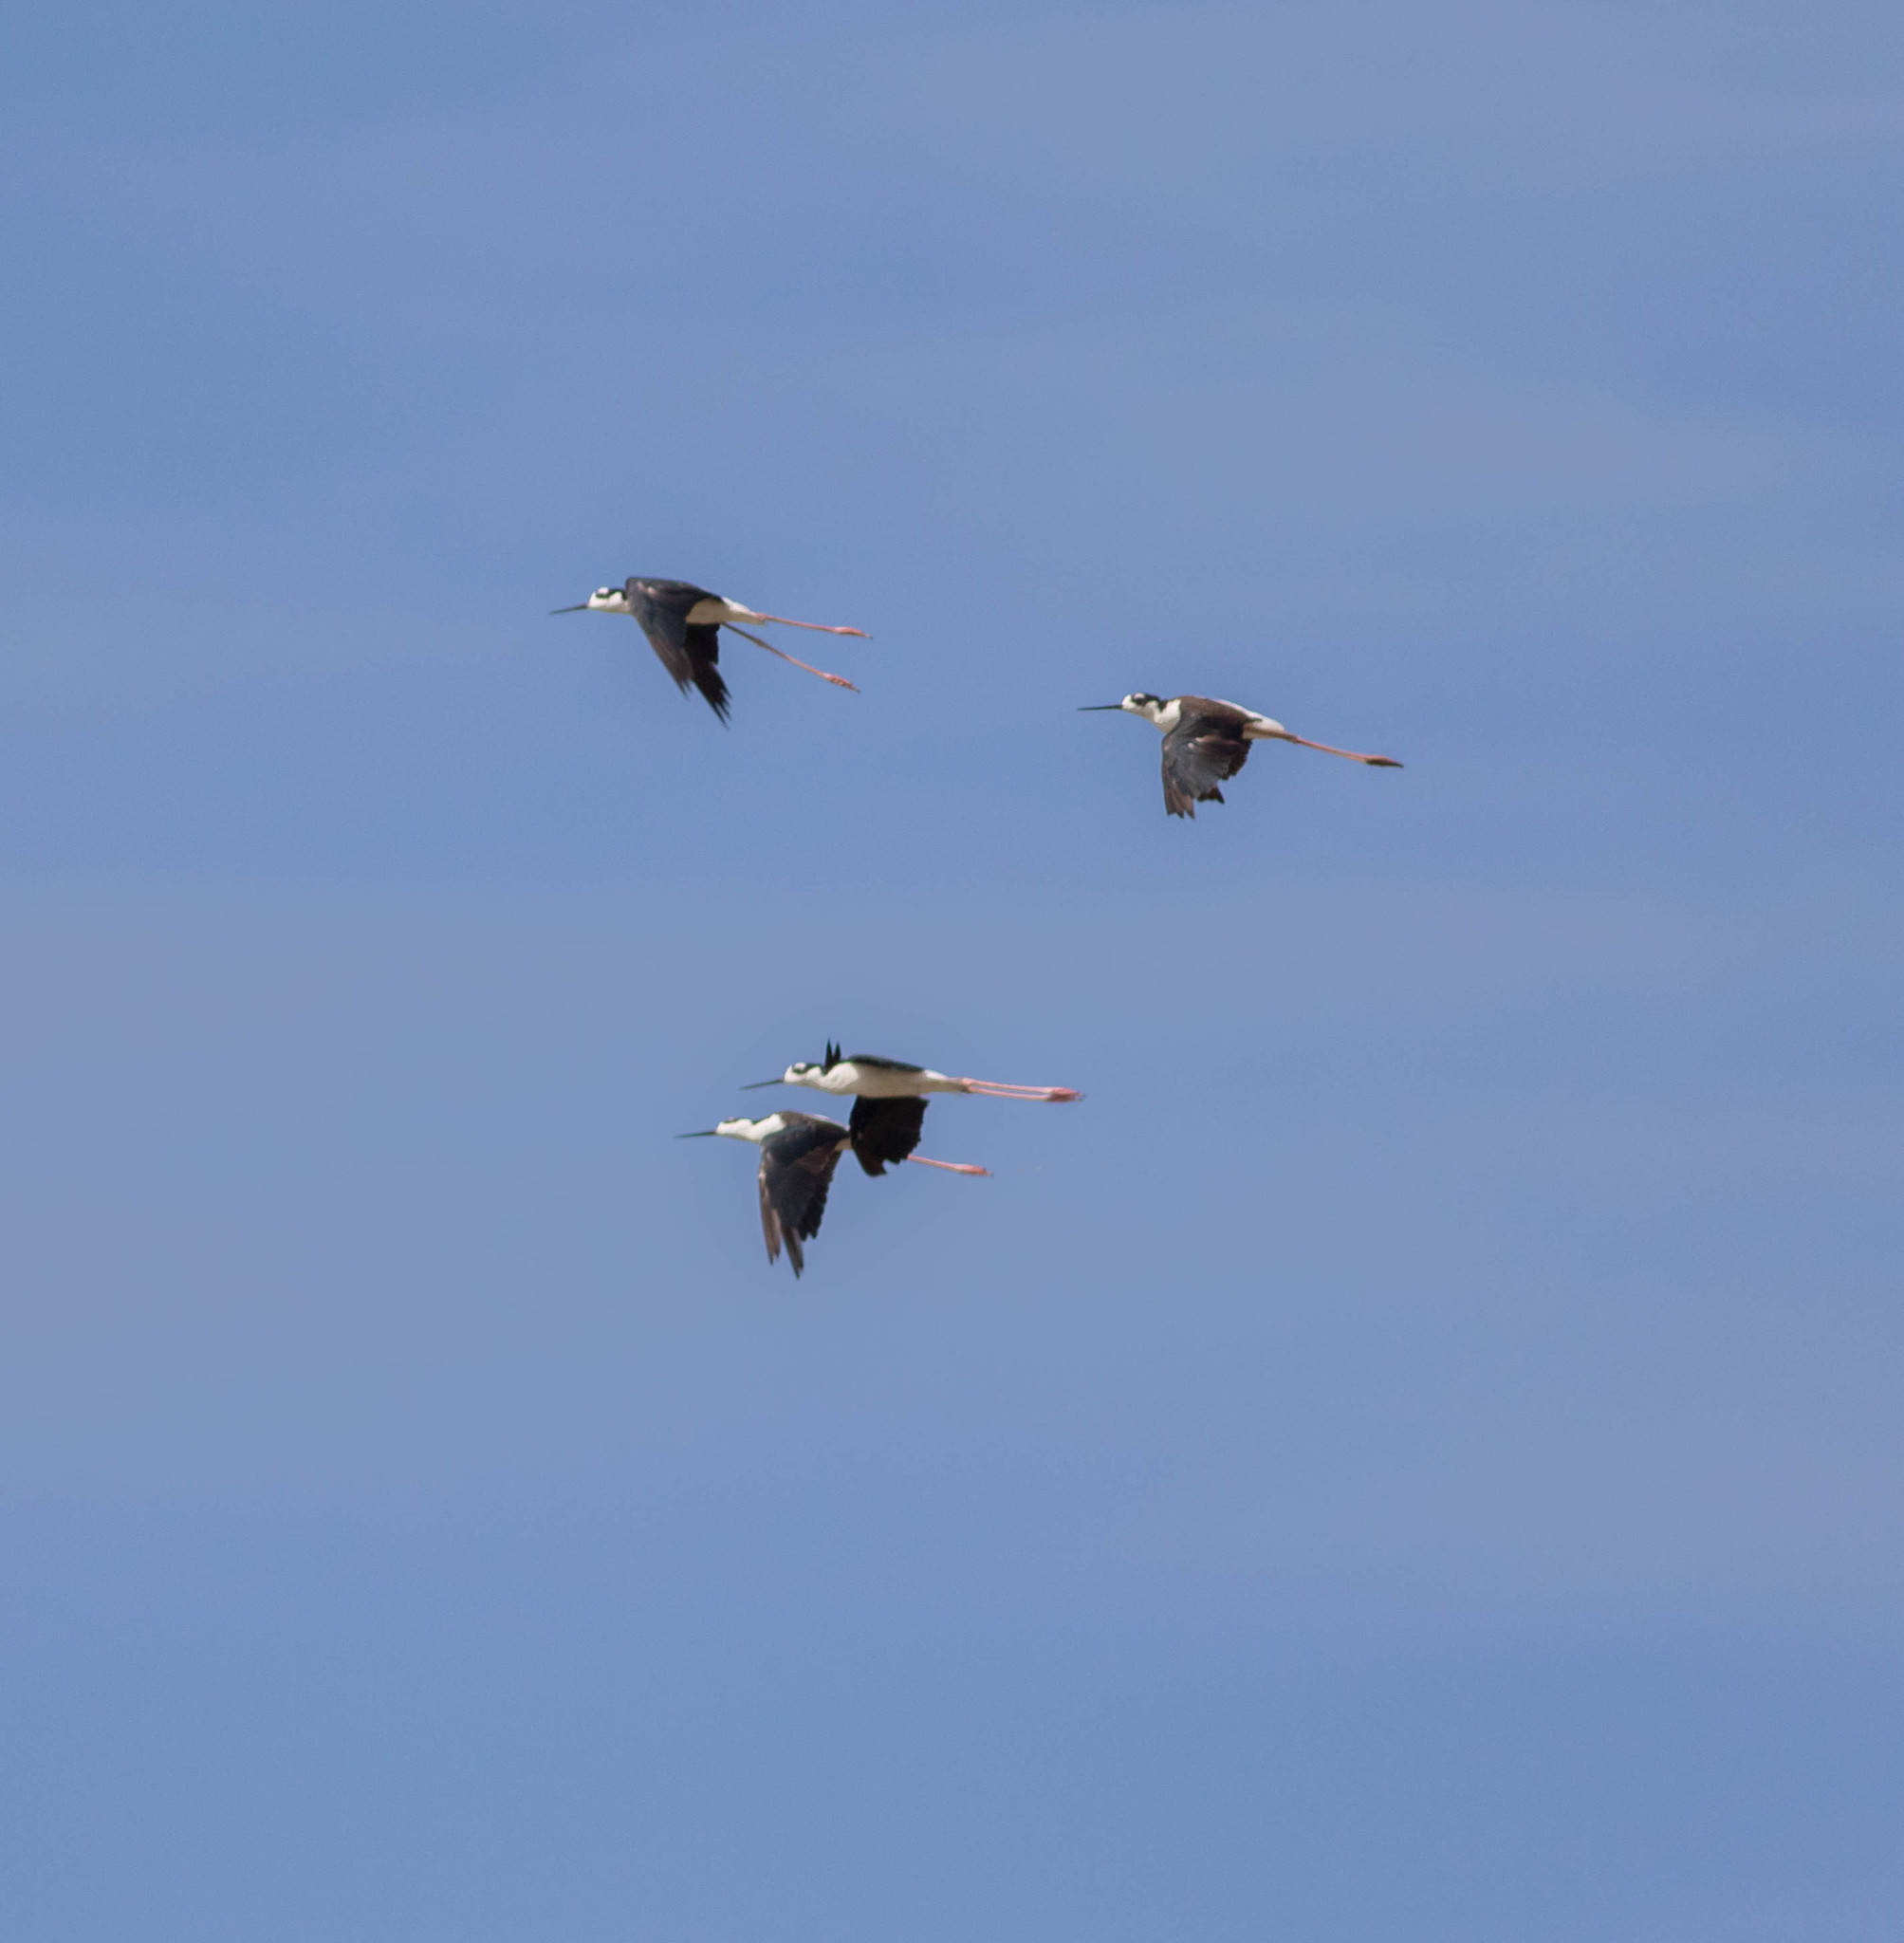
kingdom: Animalia
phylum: Chordata
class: Aves
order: Charadriiformes
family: Recurvirostridae
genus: Himantopus
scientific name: Himantopus mexicanus
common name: Black-necked stilt
